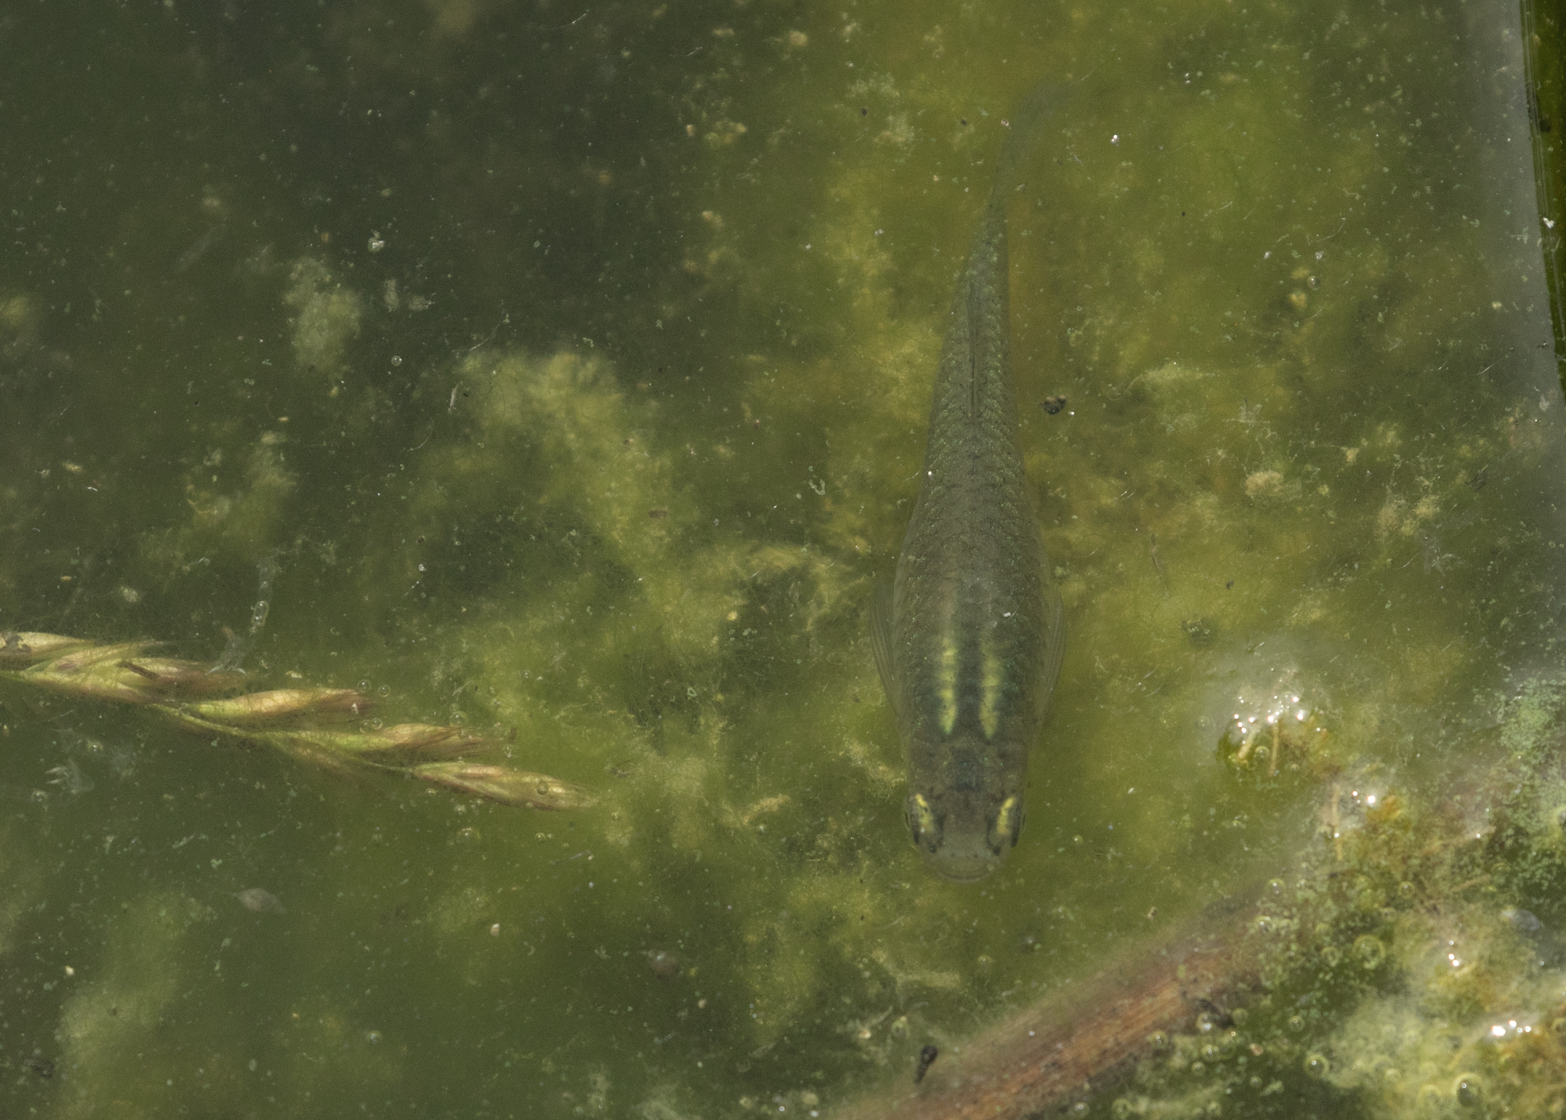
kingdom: Animalia
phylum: Chordata
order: Cyprinodontiformes
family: Poeciliidae
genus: Gambusia
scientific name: Gambusia holbrooki
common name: Eastern mosquitofish
